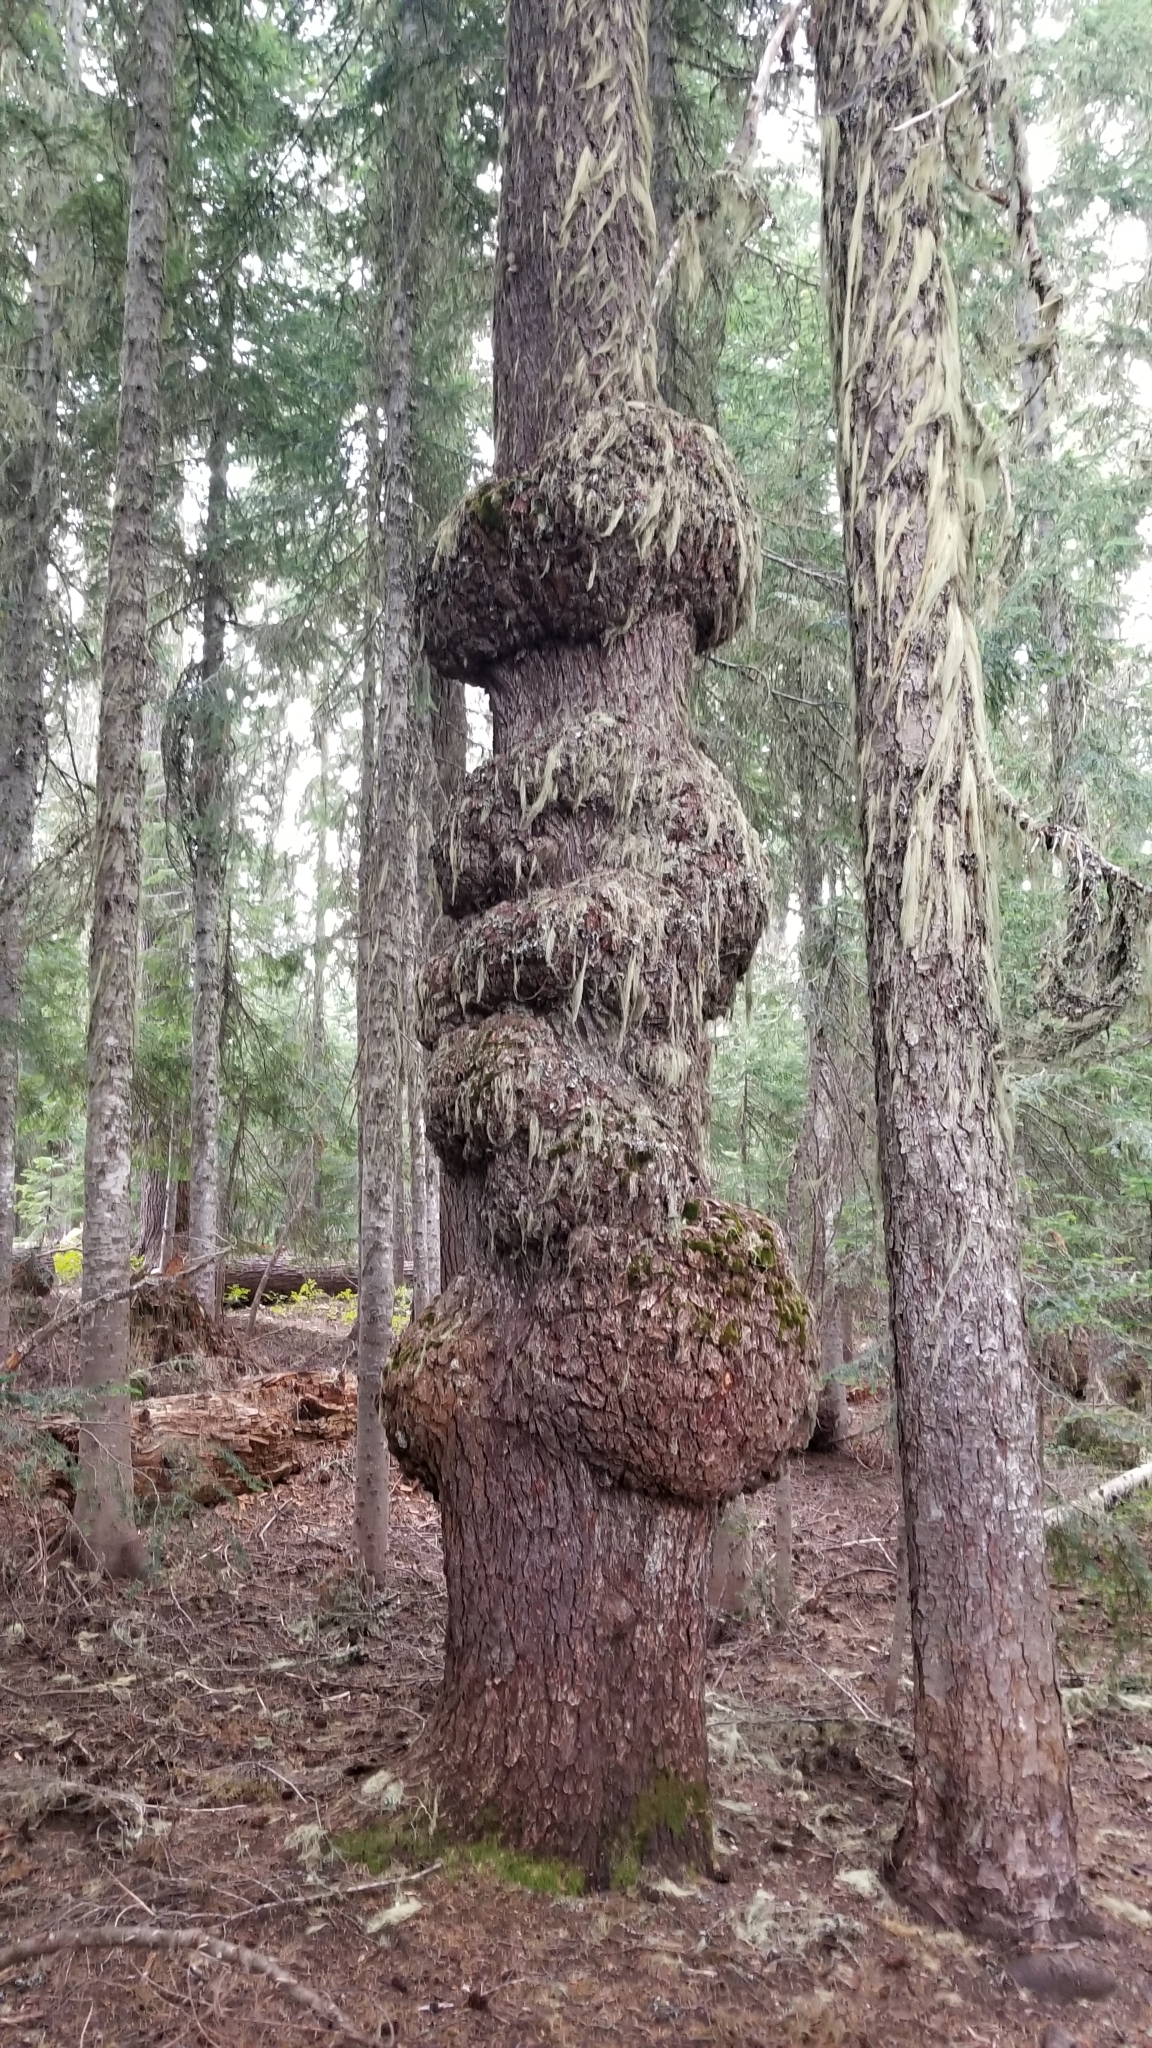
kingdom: Plantae
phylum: Tracheophyta
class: Pinopsida
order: Pinales
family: Pinaceae
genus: Pinus
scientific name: Pinus monticola
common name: Western white pine
